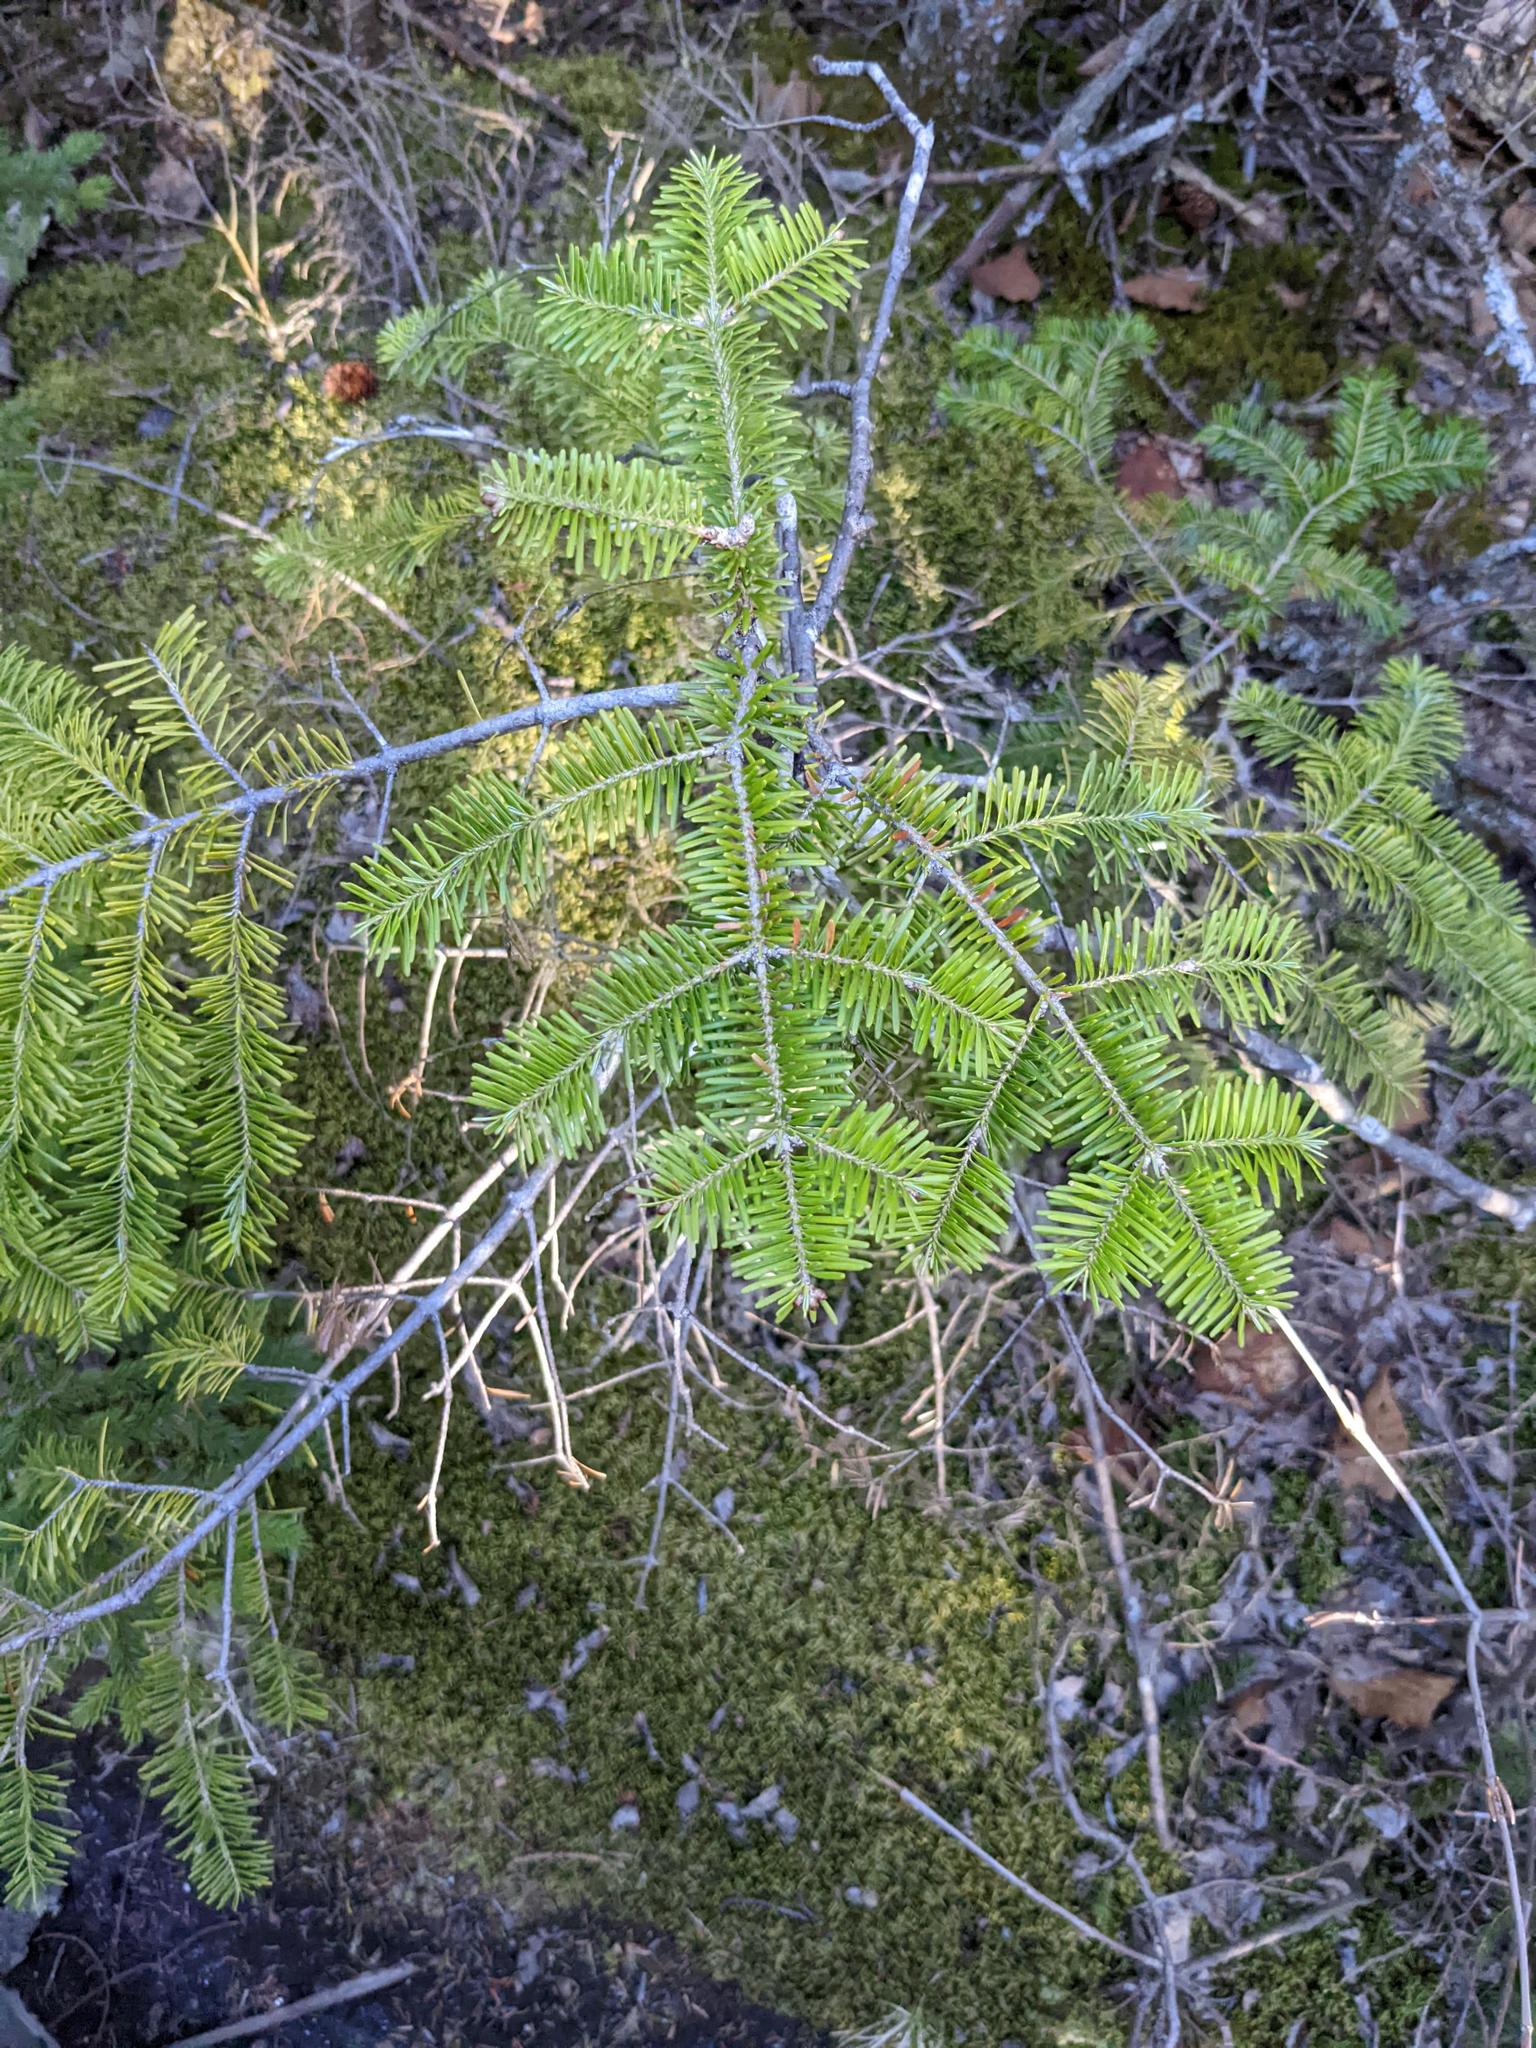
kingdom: Plantae
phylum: Tracheophyta
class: Pinopsida
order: Pinales
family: Pinaceae
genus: Abies
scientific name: Abies balsamea
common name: Balsam fir
